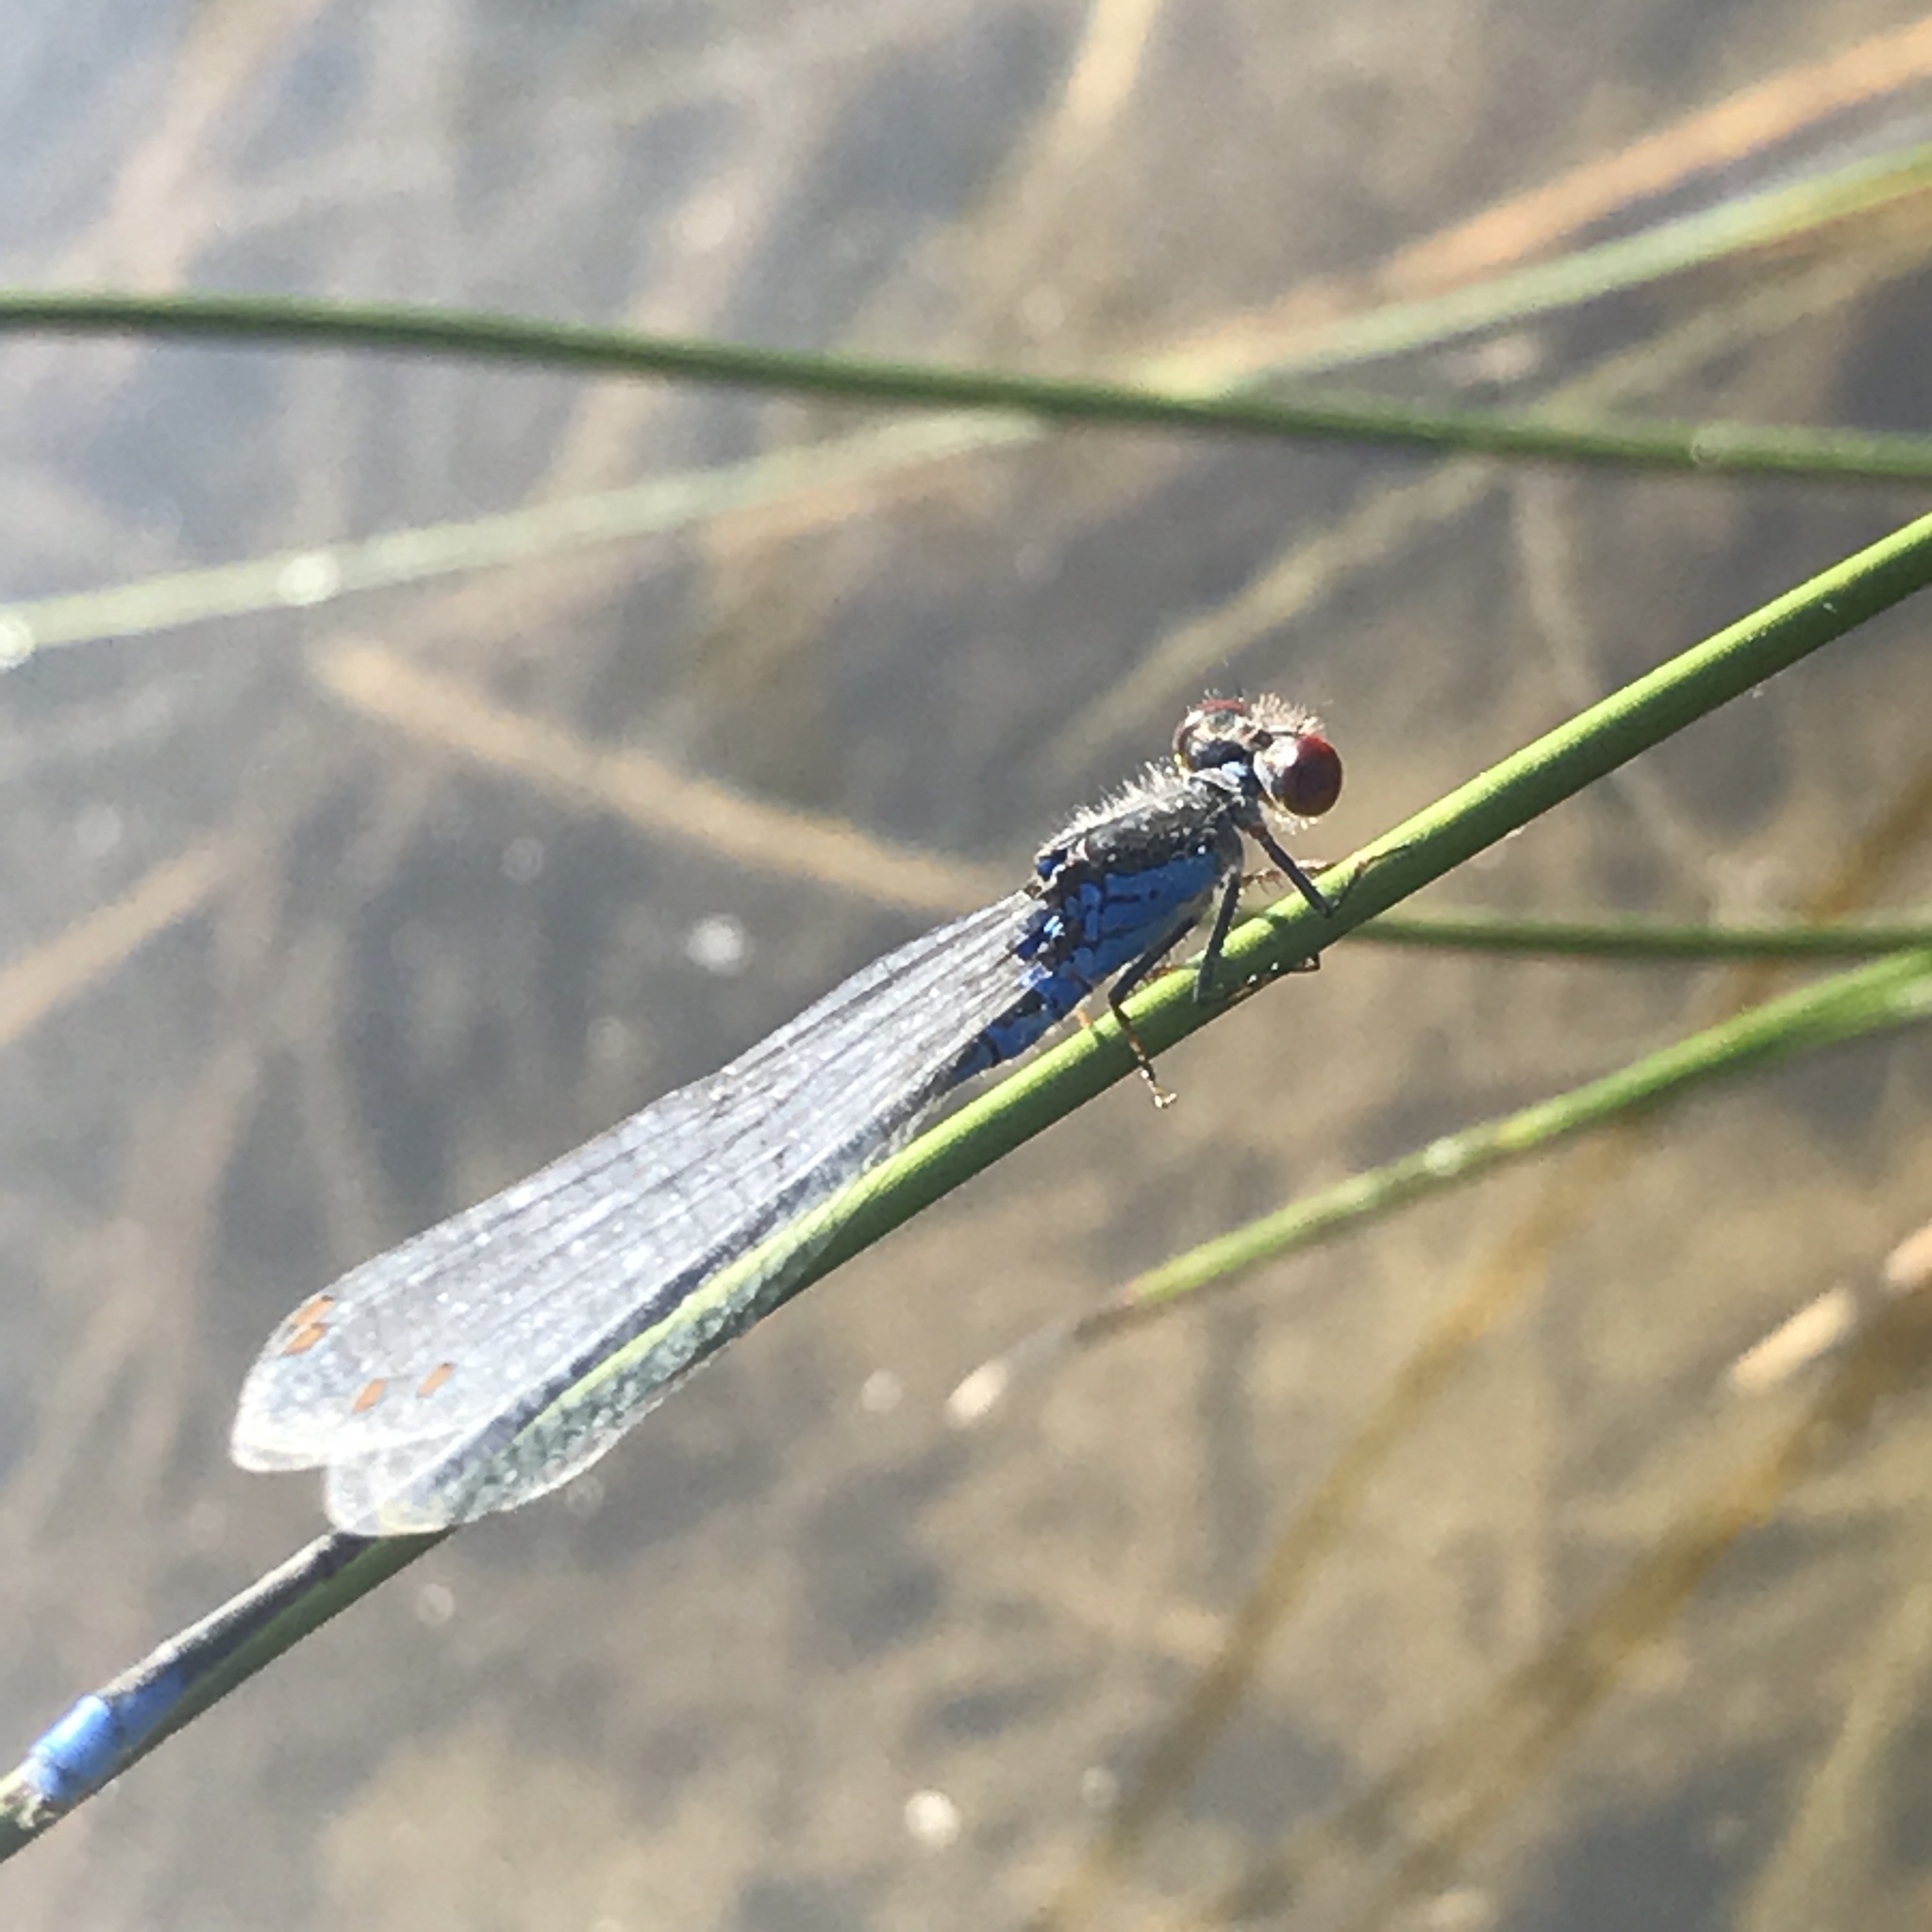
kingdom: Animalia
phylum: Arthropoda
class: Insecta
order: Odonata
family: Coenagrionidae
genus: Erythromma
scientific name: Erythromma viridulum
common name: Small red-eyed damselfly
